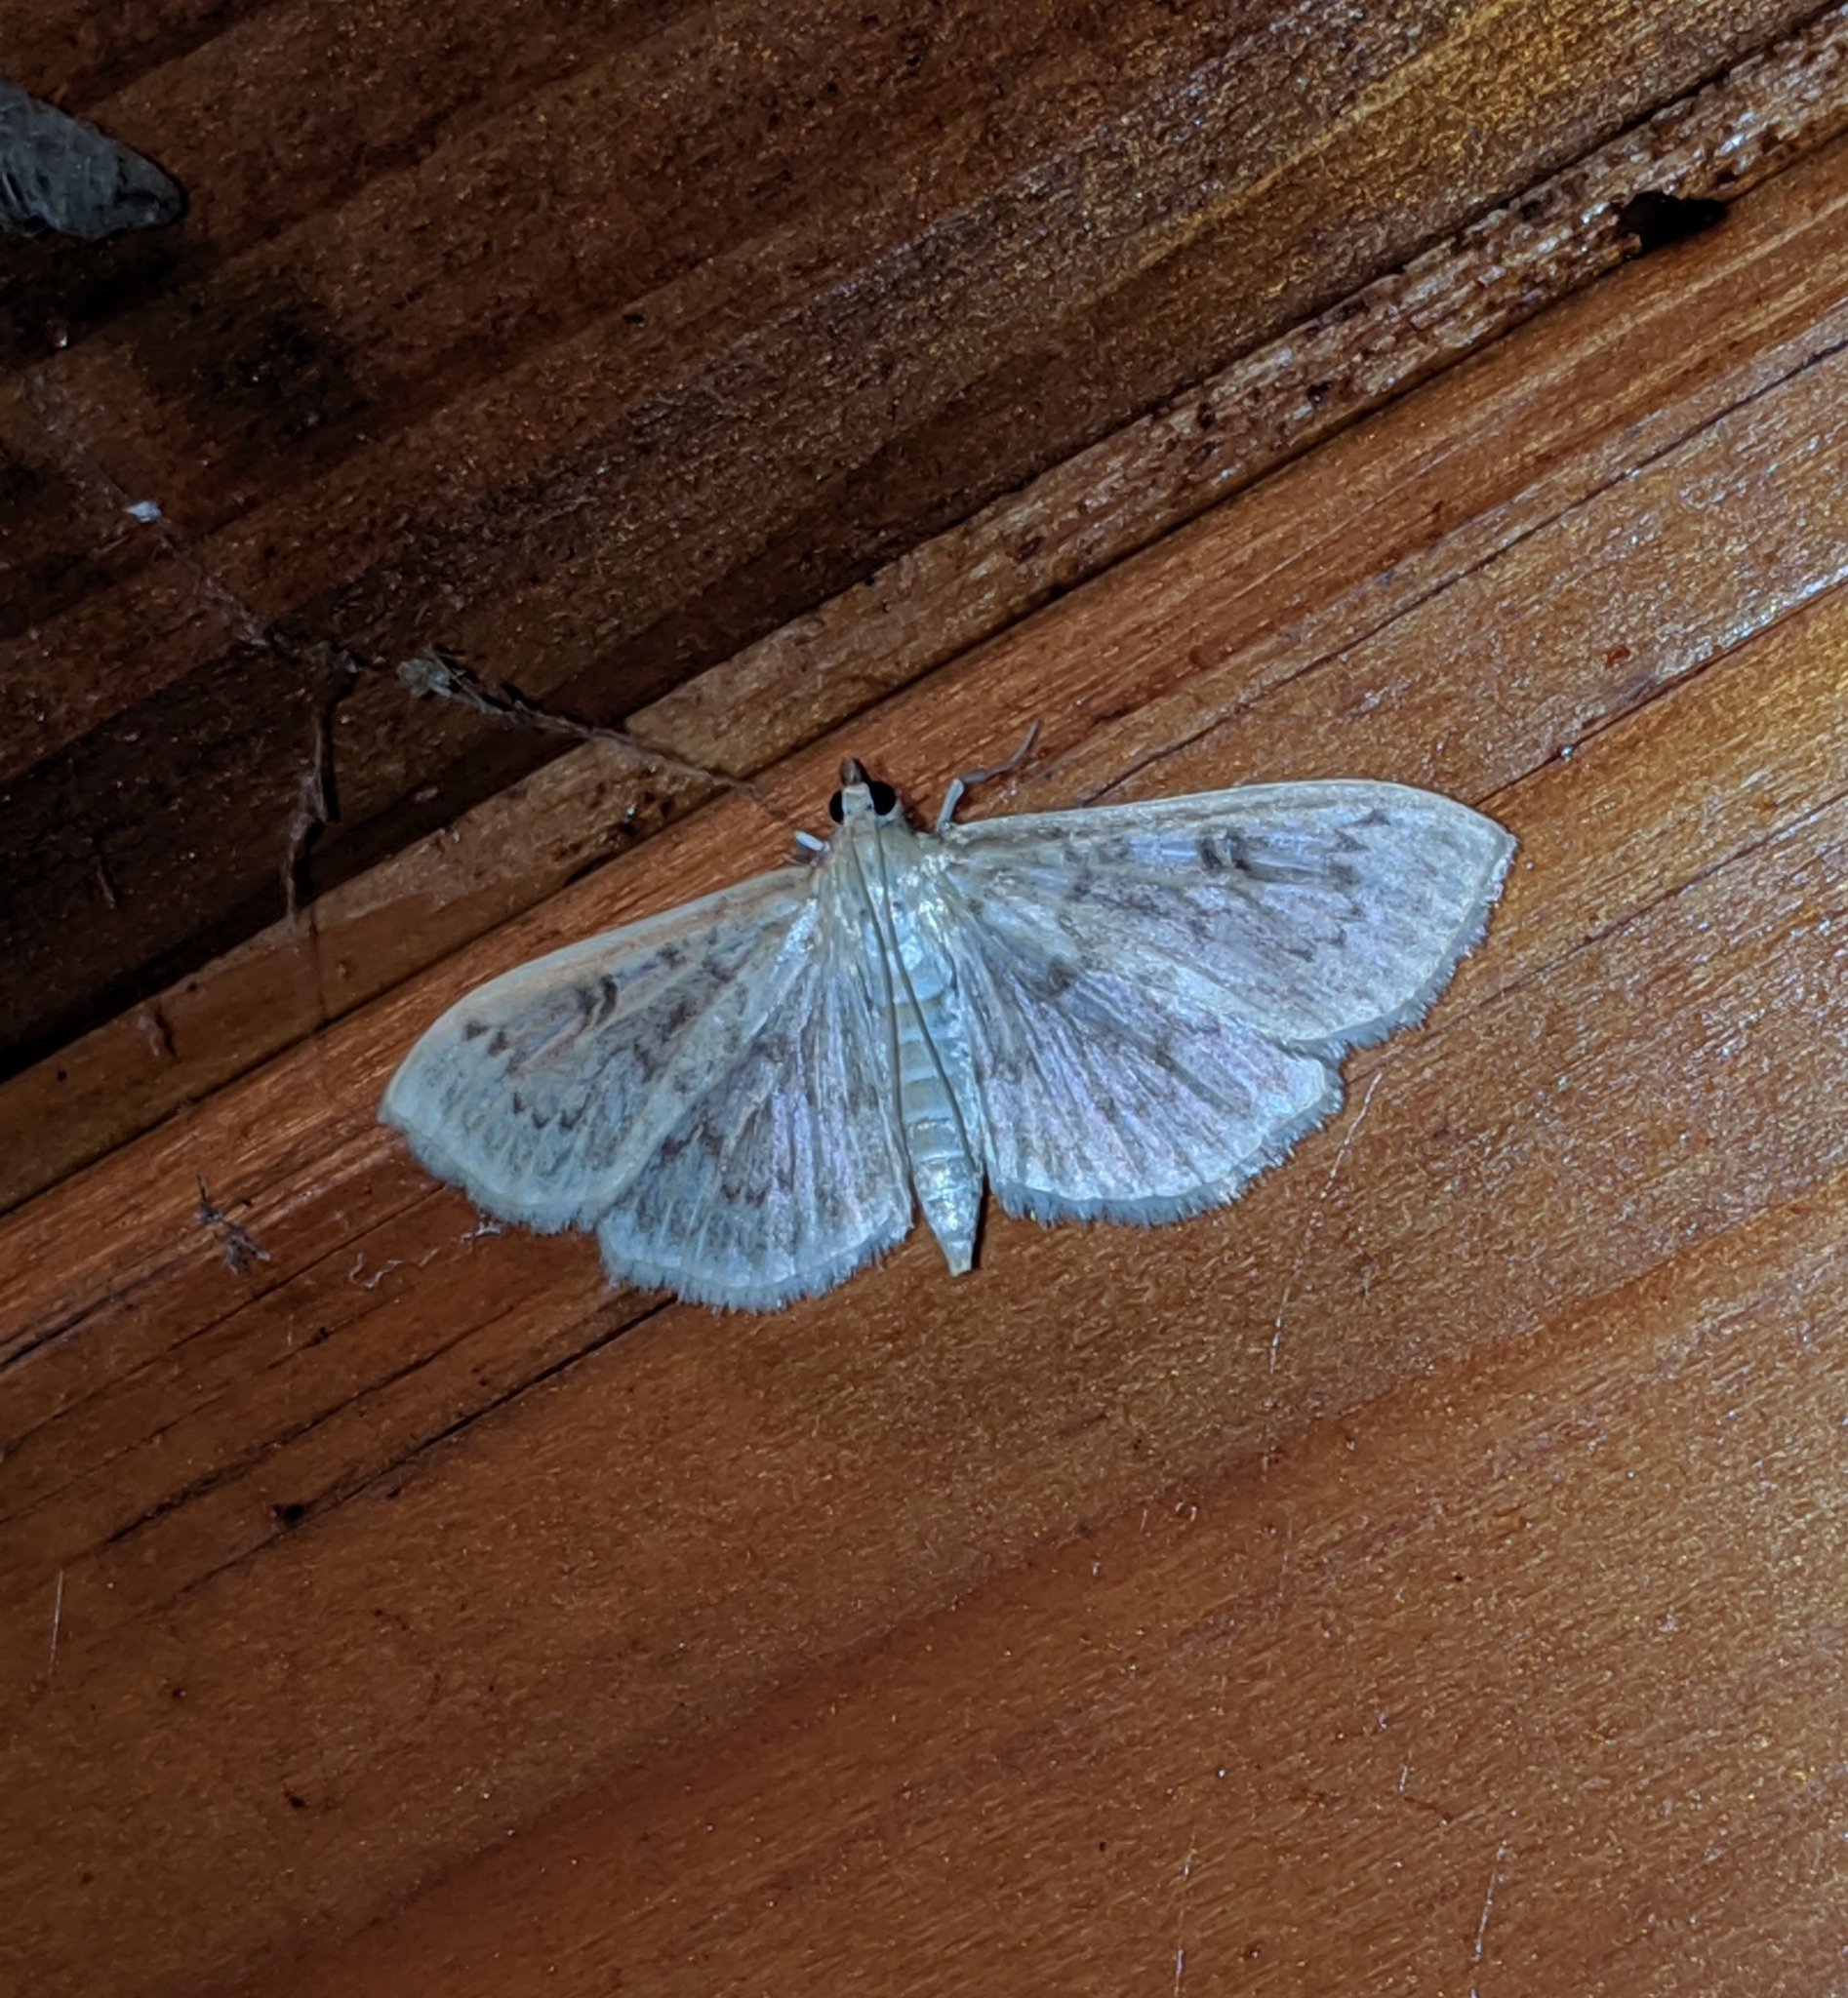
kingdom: Animalia
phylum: Arthropoda
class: Insecta
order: Lepidoptera
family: Crambidae
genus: Herpetogramma
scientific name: Herpetogramma aquilonalis
